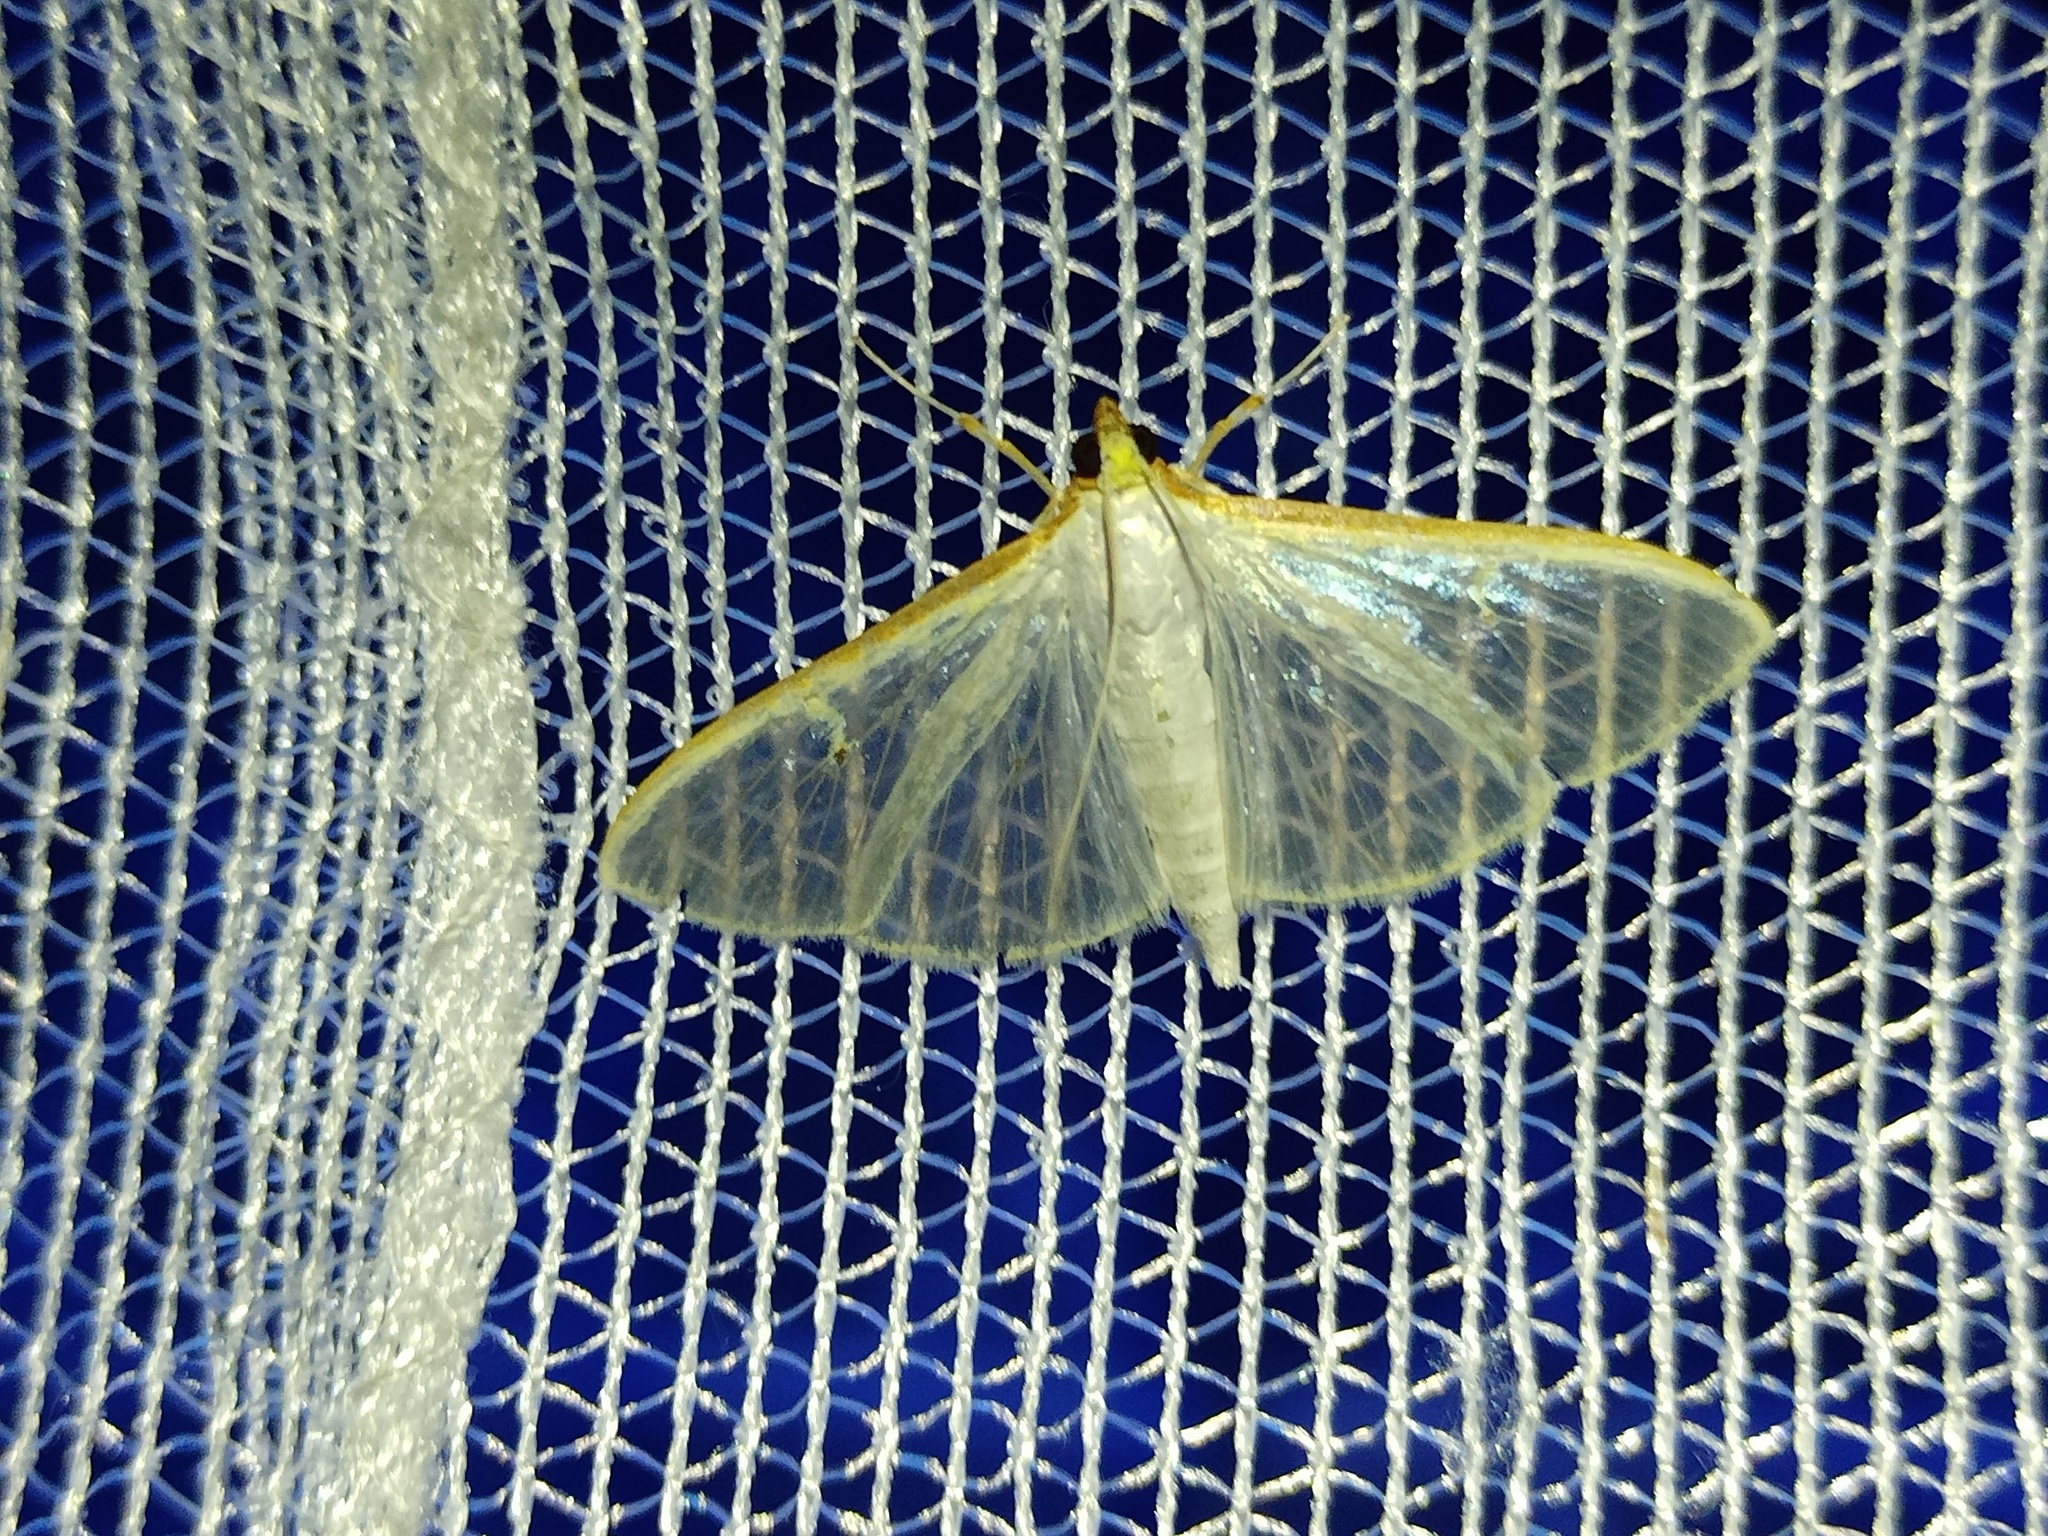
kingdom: Animalia
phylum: Arthropoda
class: Insecta
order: Lepidoptera
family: Crambidae
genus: Palpita
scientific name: Palpita vitrealis
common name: Olive-tree pearl
